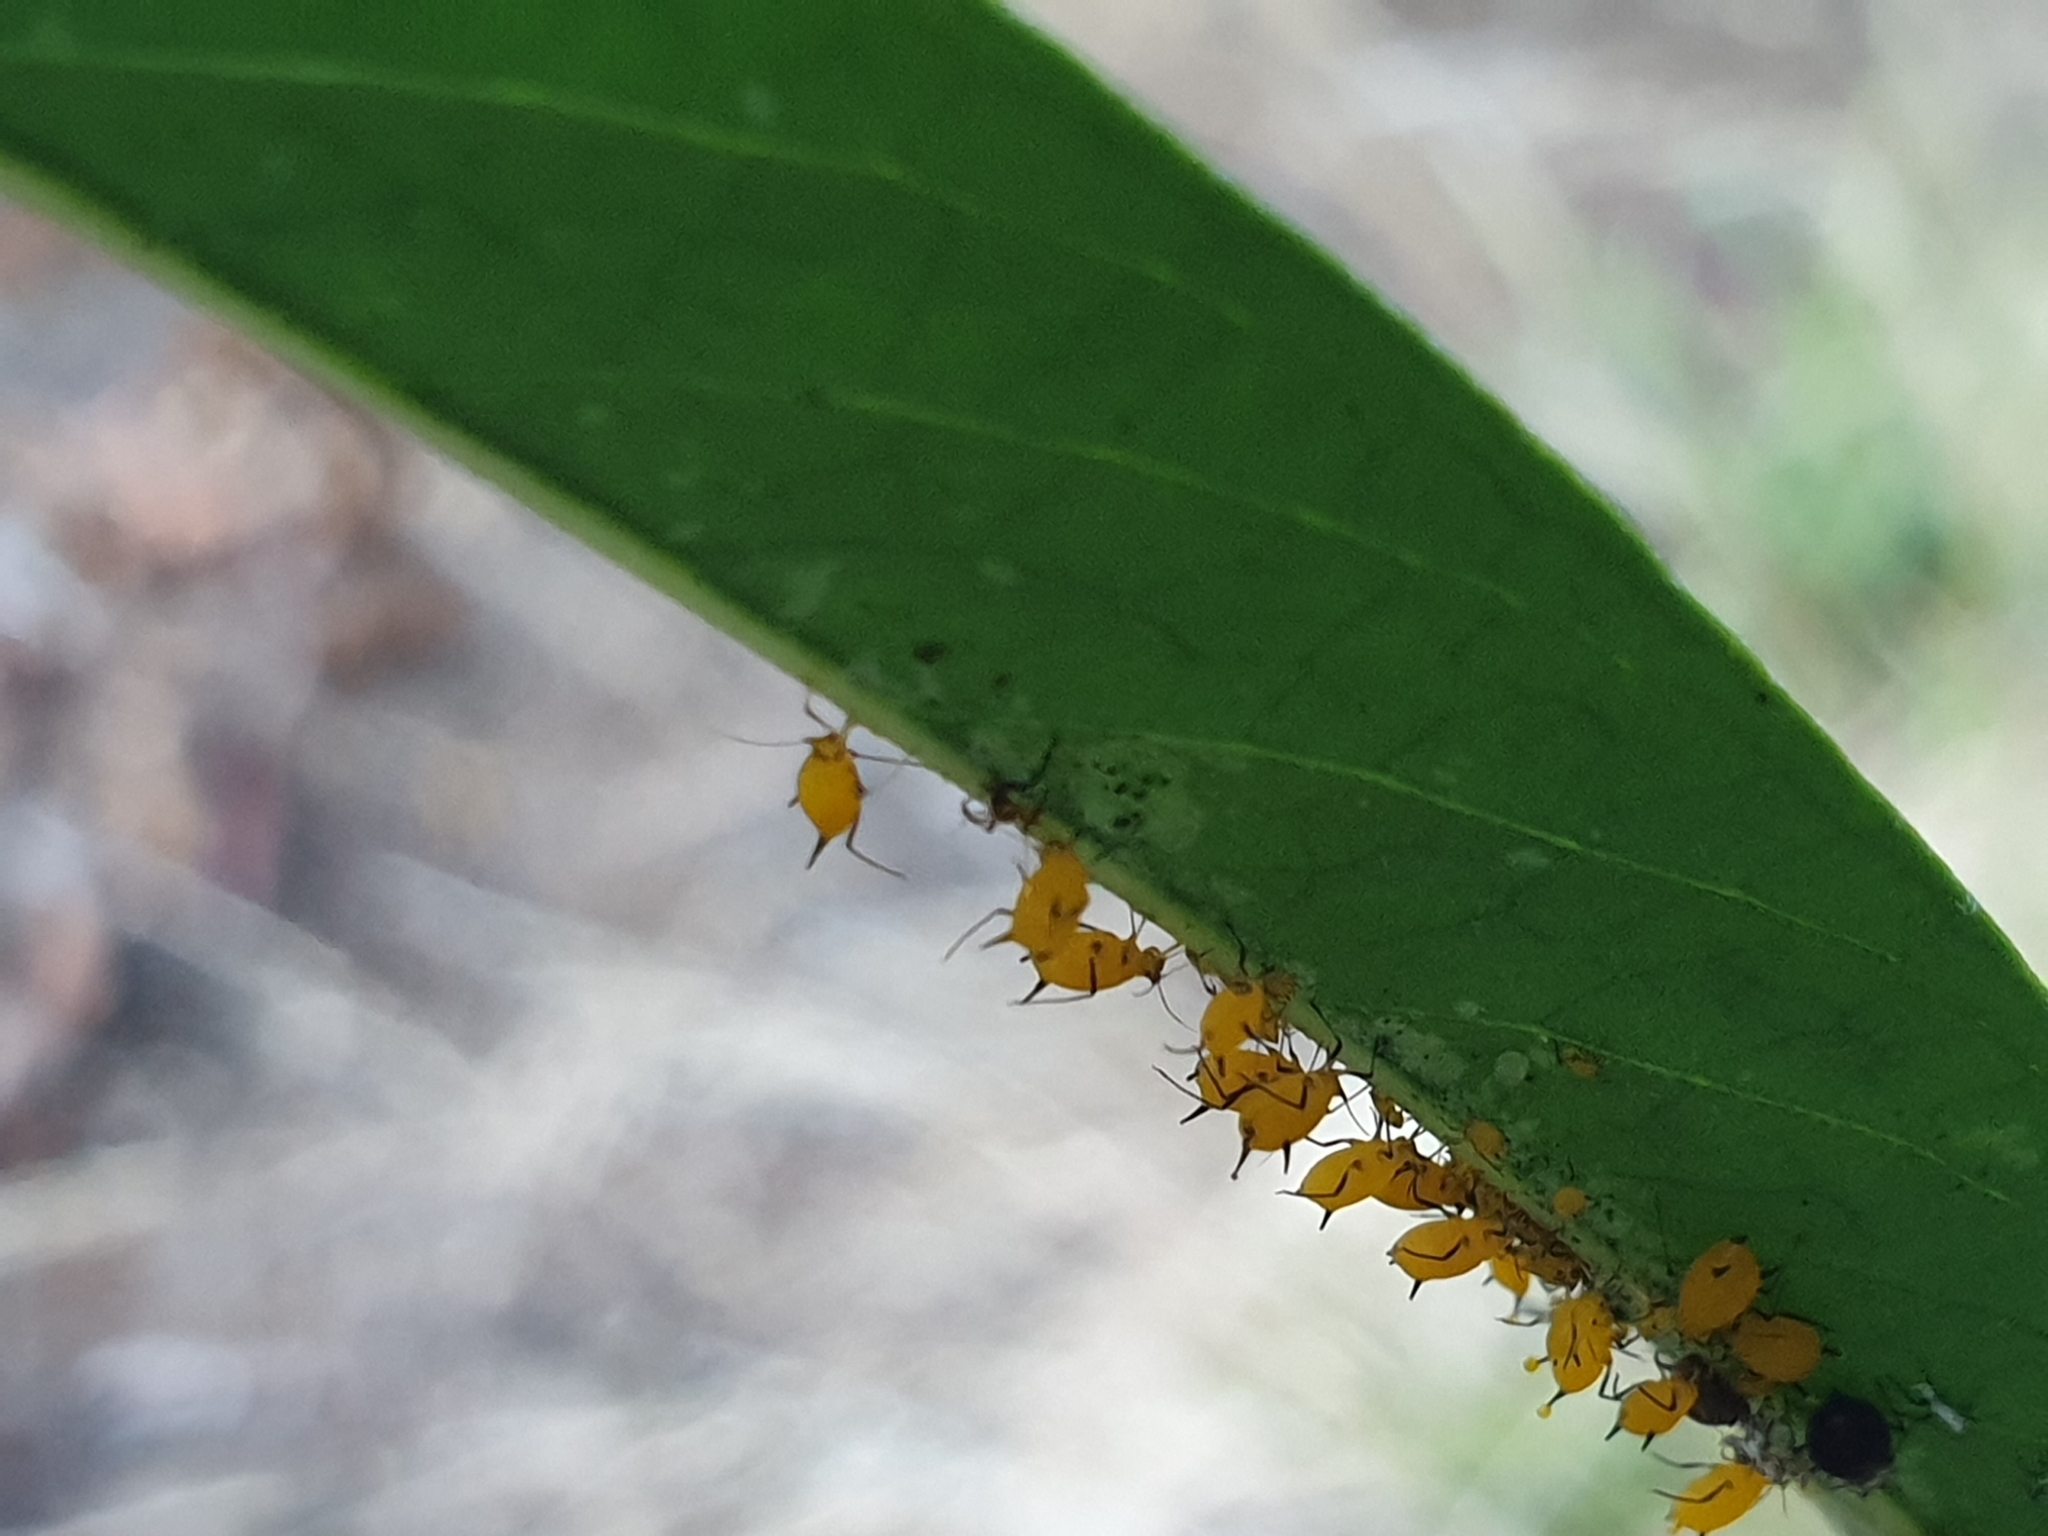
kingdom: Animalia
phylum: Arthropoda
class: Insecta
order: Hemiptera
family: Aphididae
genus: Aphis
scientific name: Aphis nerii
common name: Oleander aphid
